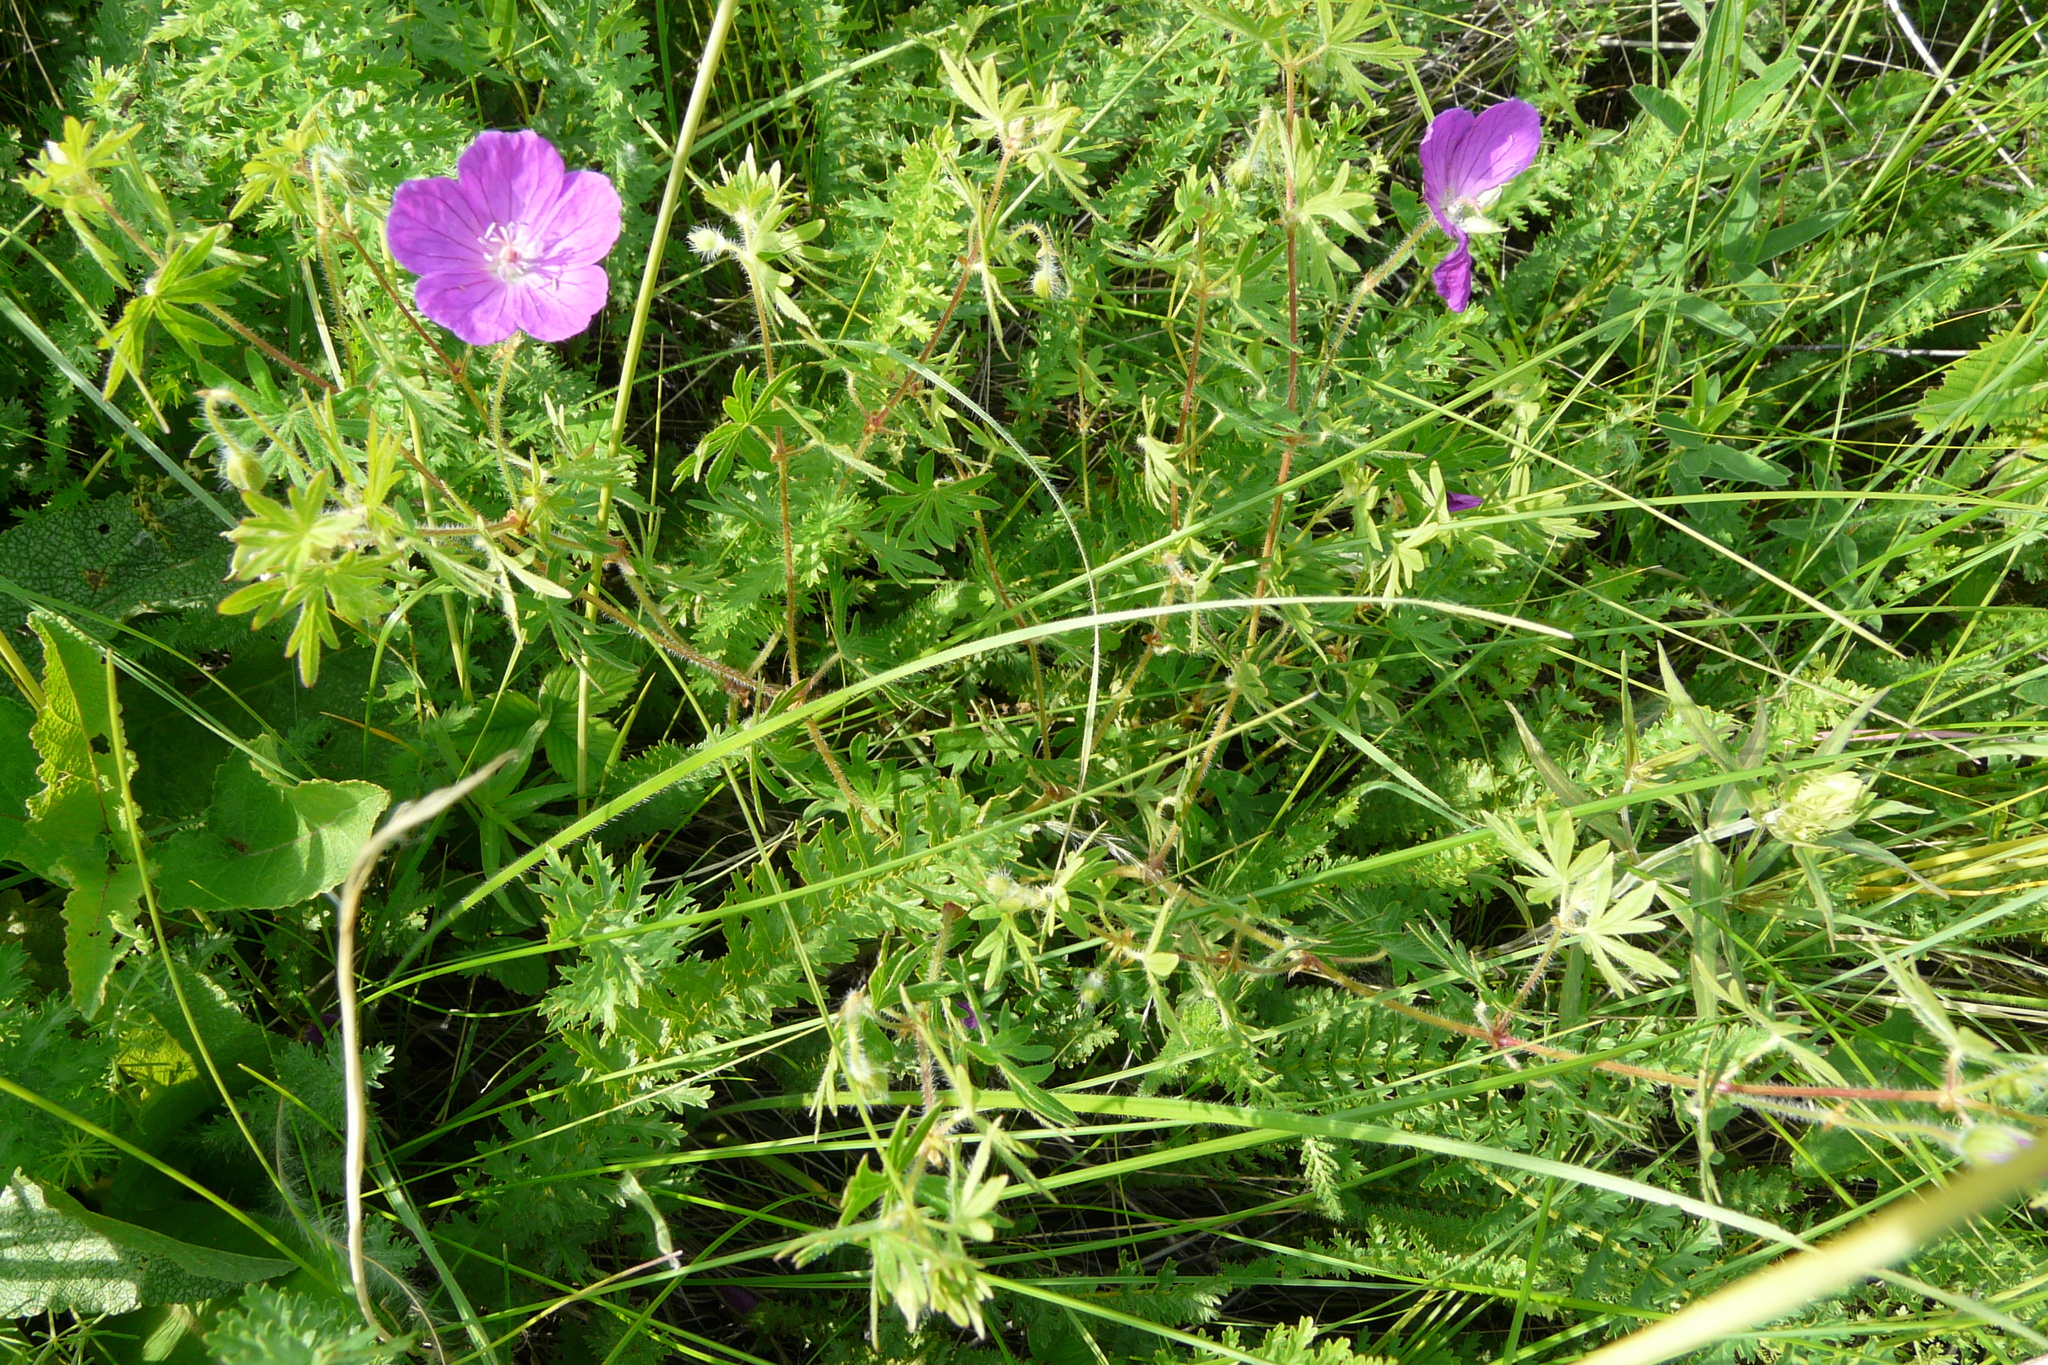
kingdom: Plantae
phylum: Tracheophyta
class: Magnoliopsida
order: Geraniales
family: Geraniaceae
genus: Geranium
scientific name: Geranium sanguineum
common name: Bloody crane's-bill
